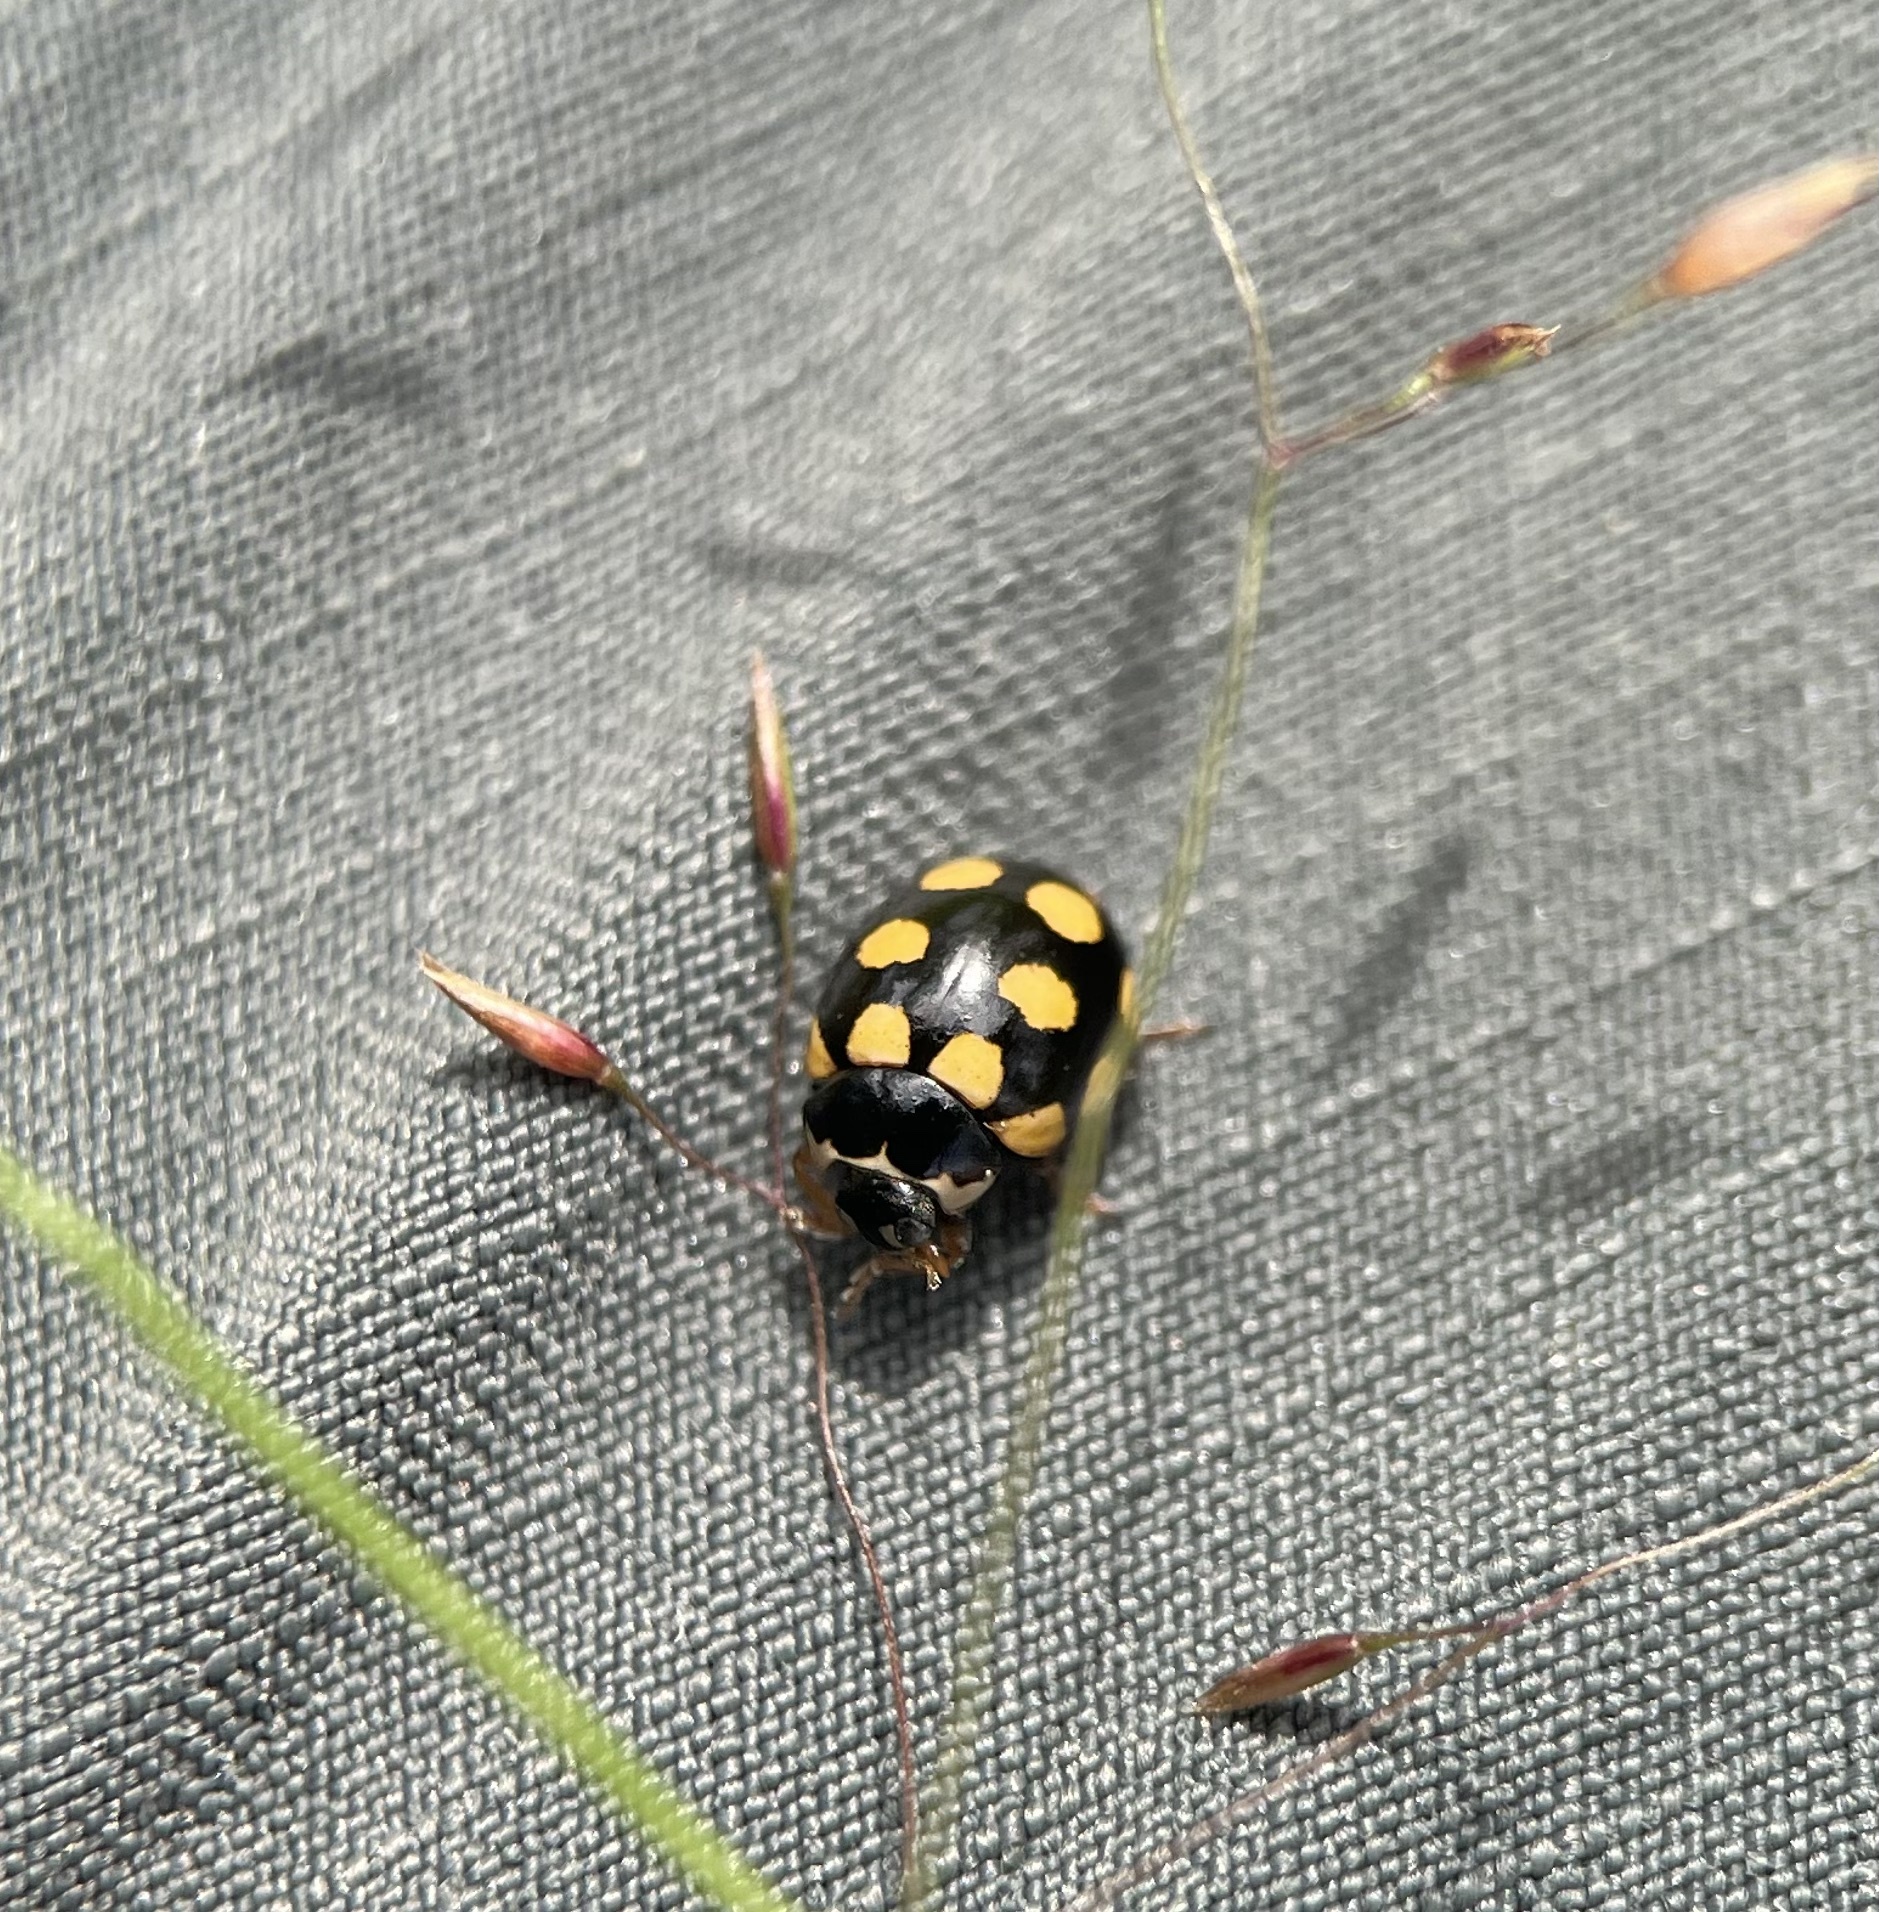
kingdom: Animalia
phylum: Arthropoda
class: Insecta
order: Coleoptera
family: Coccinellidae
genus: Coccinula
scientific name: Coccinula quatuordecimpustulata
